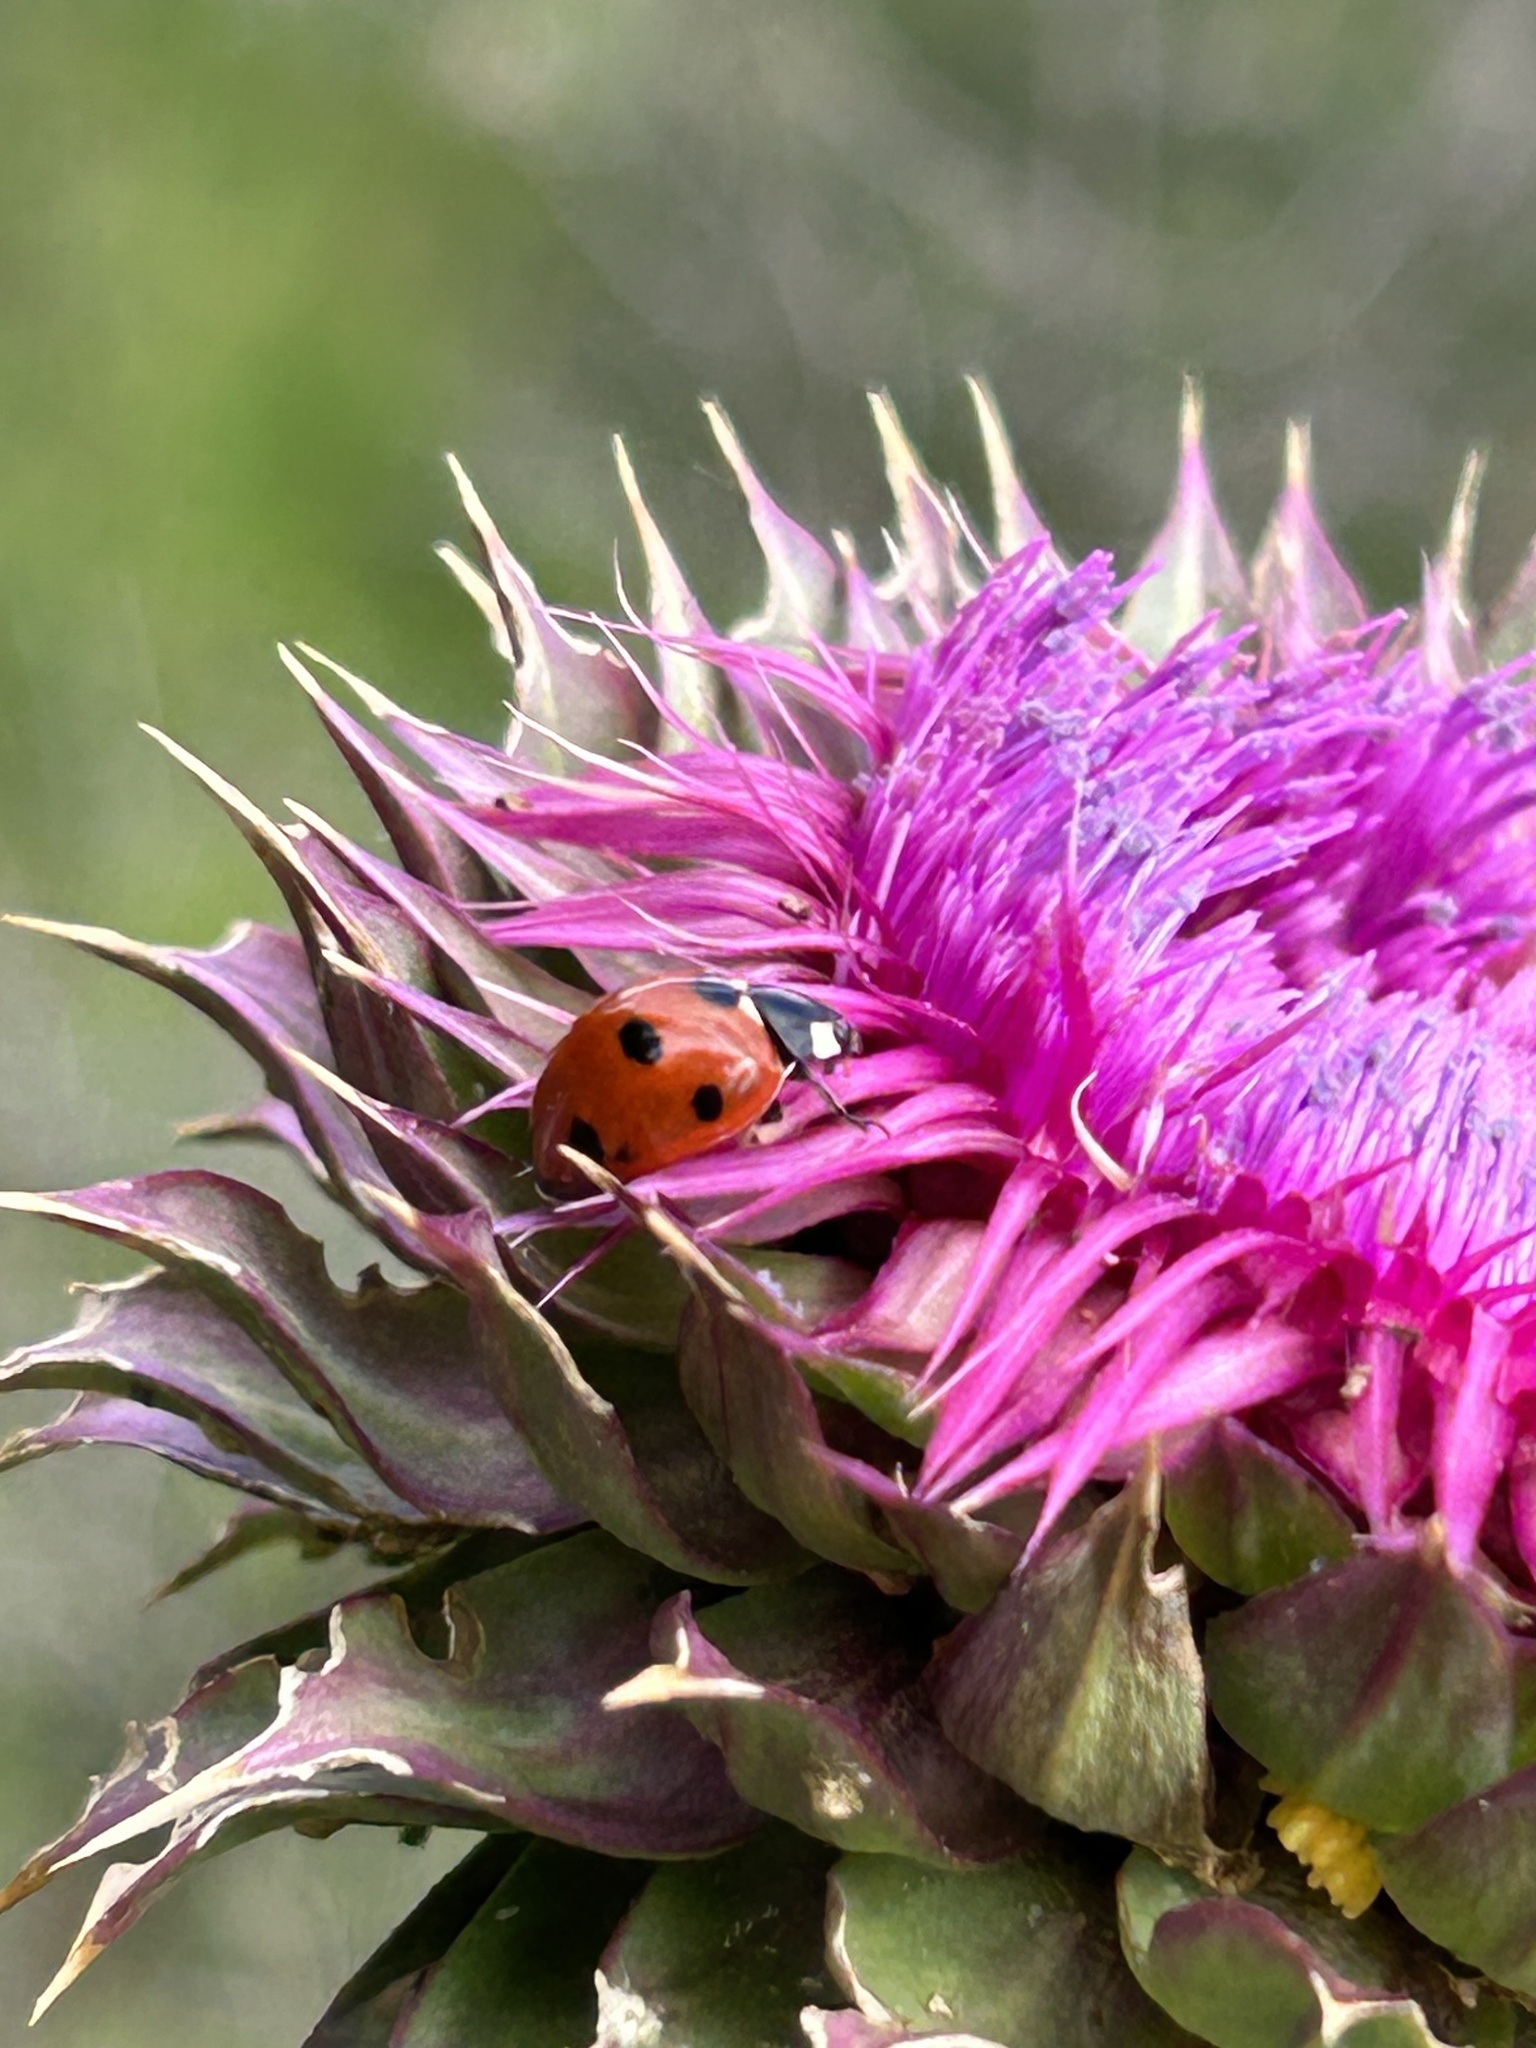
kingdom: Animalia
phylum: Arthropoda
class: Insecta
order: Coleoptera
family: Coccinellidae
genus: Coccinella
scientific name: Coccinella septempunctata
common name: Sevenspotted lady beetle
